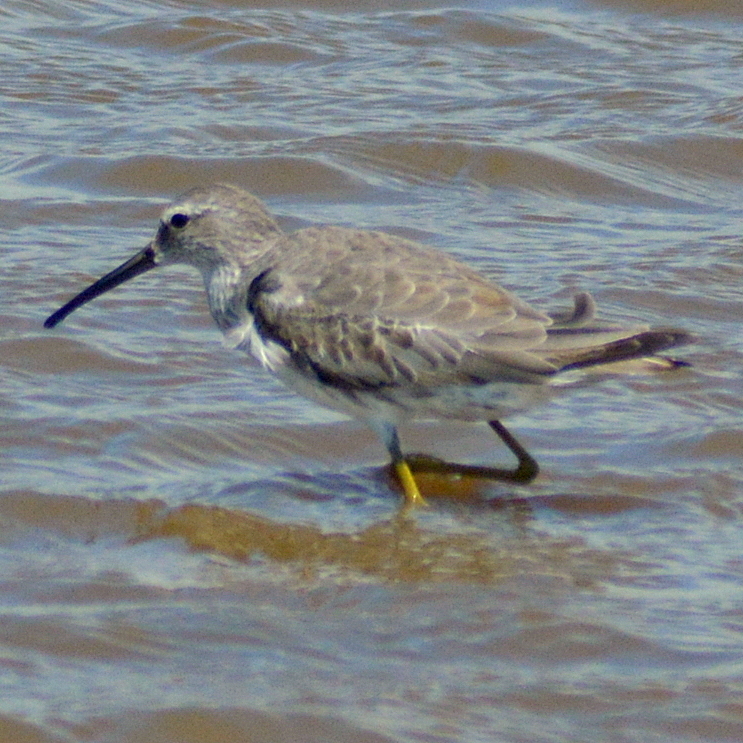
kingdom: Animalia
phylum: Chordata
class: Aves
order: Charadriiformes
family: Scolopacidae
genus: Calidris
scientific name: Calidris himantopus
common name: Stilt sandpiper
